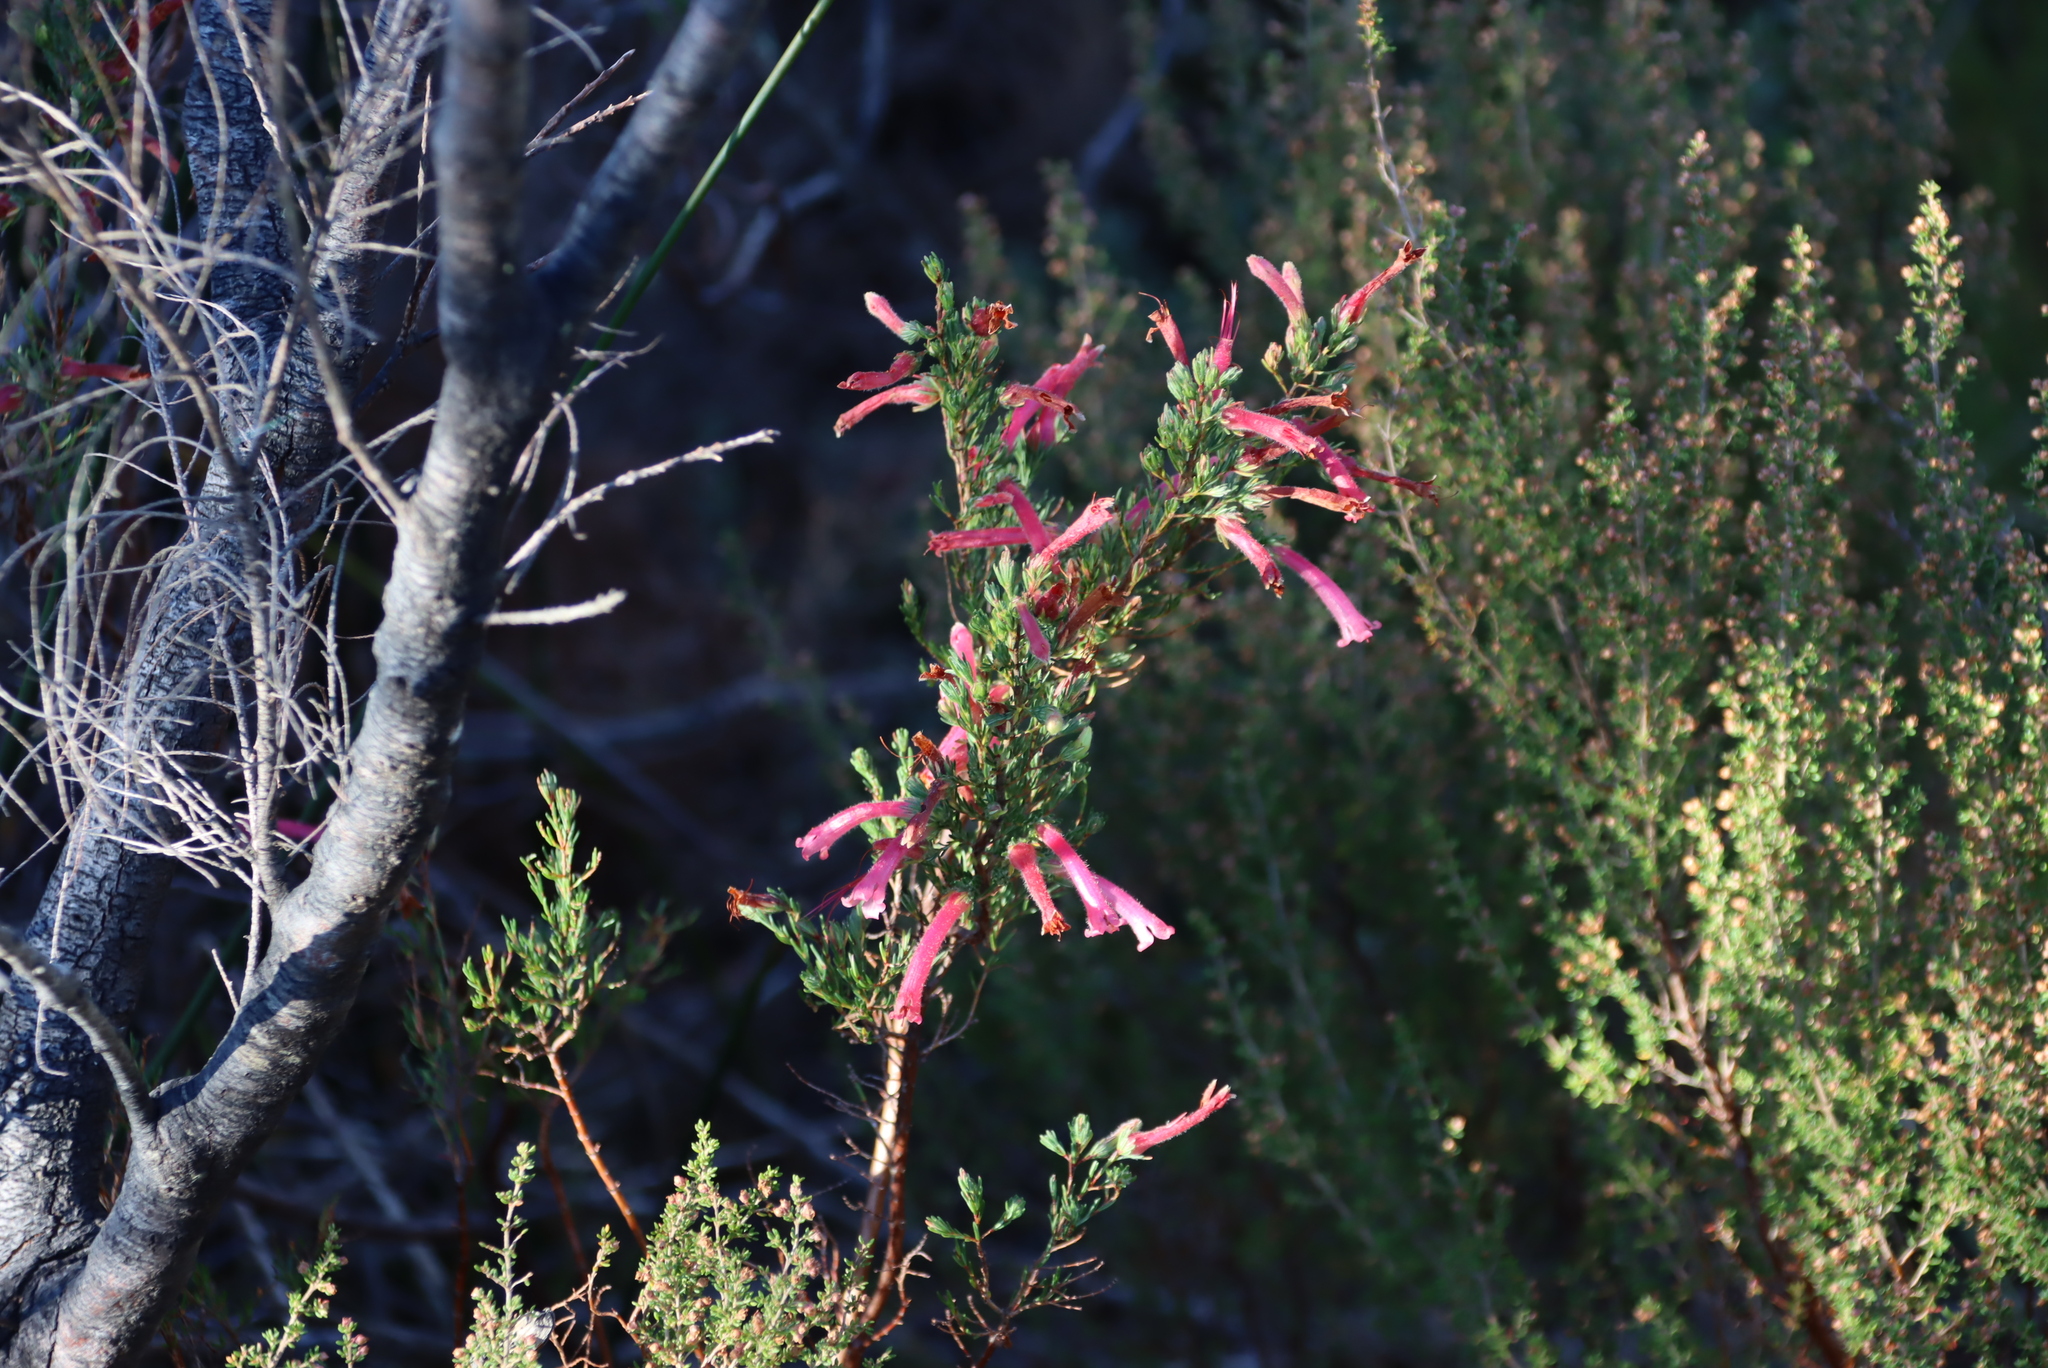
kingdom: Plantae
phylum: Tracheophyta
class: Magnoliopsida
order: Ericales
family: Ericaceae
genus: Erica
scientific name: Erica curviflora
